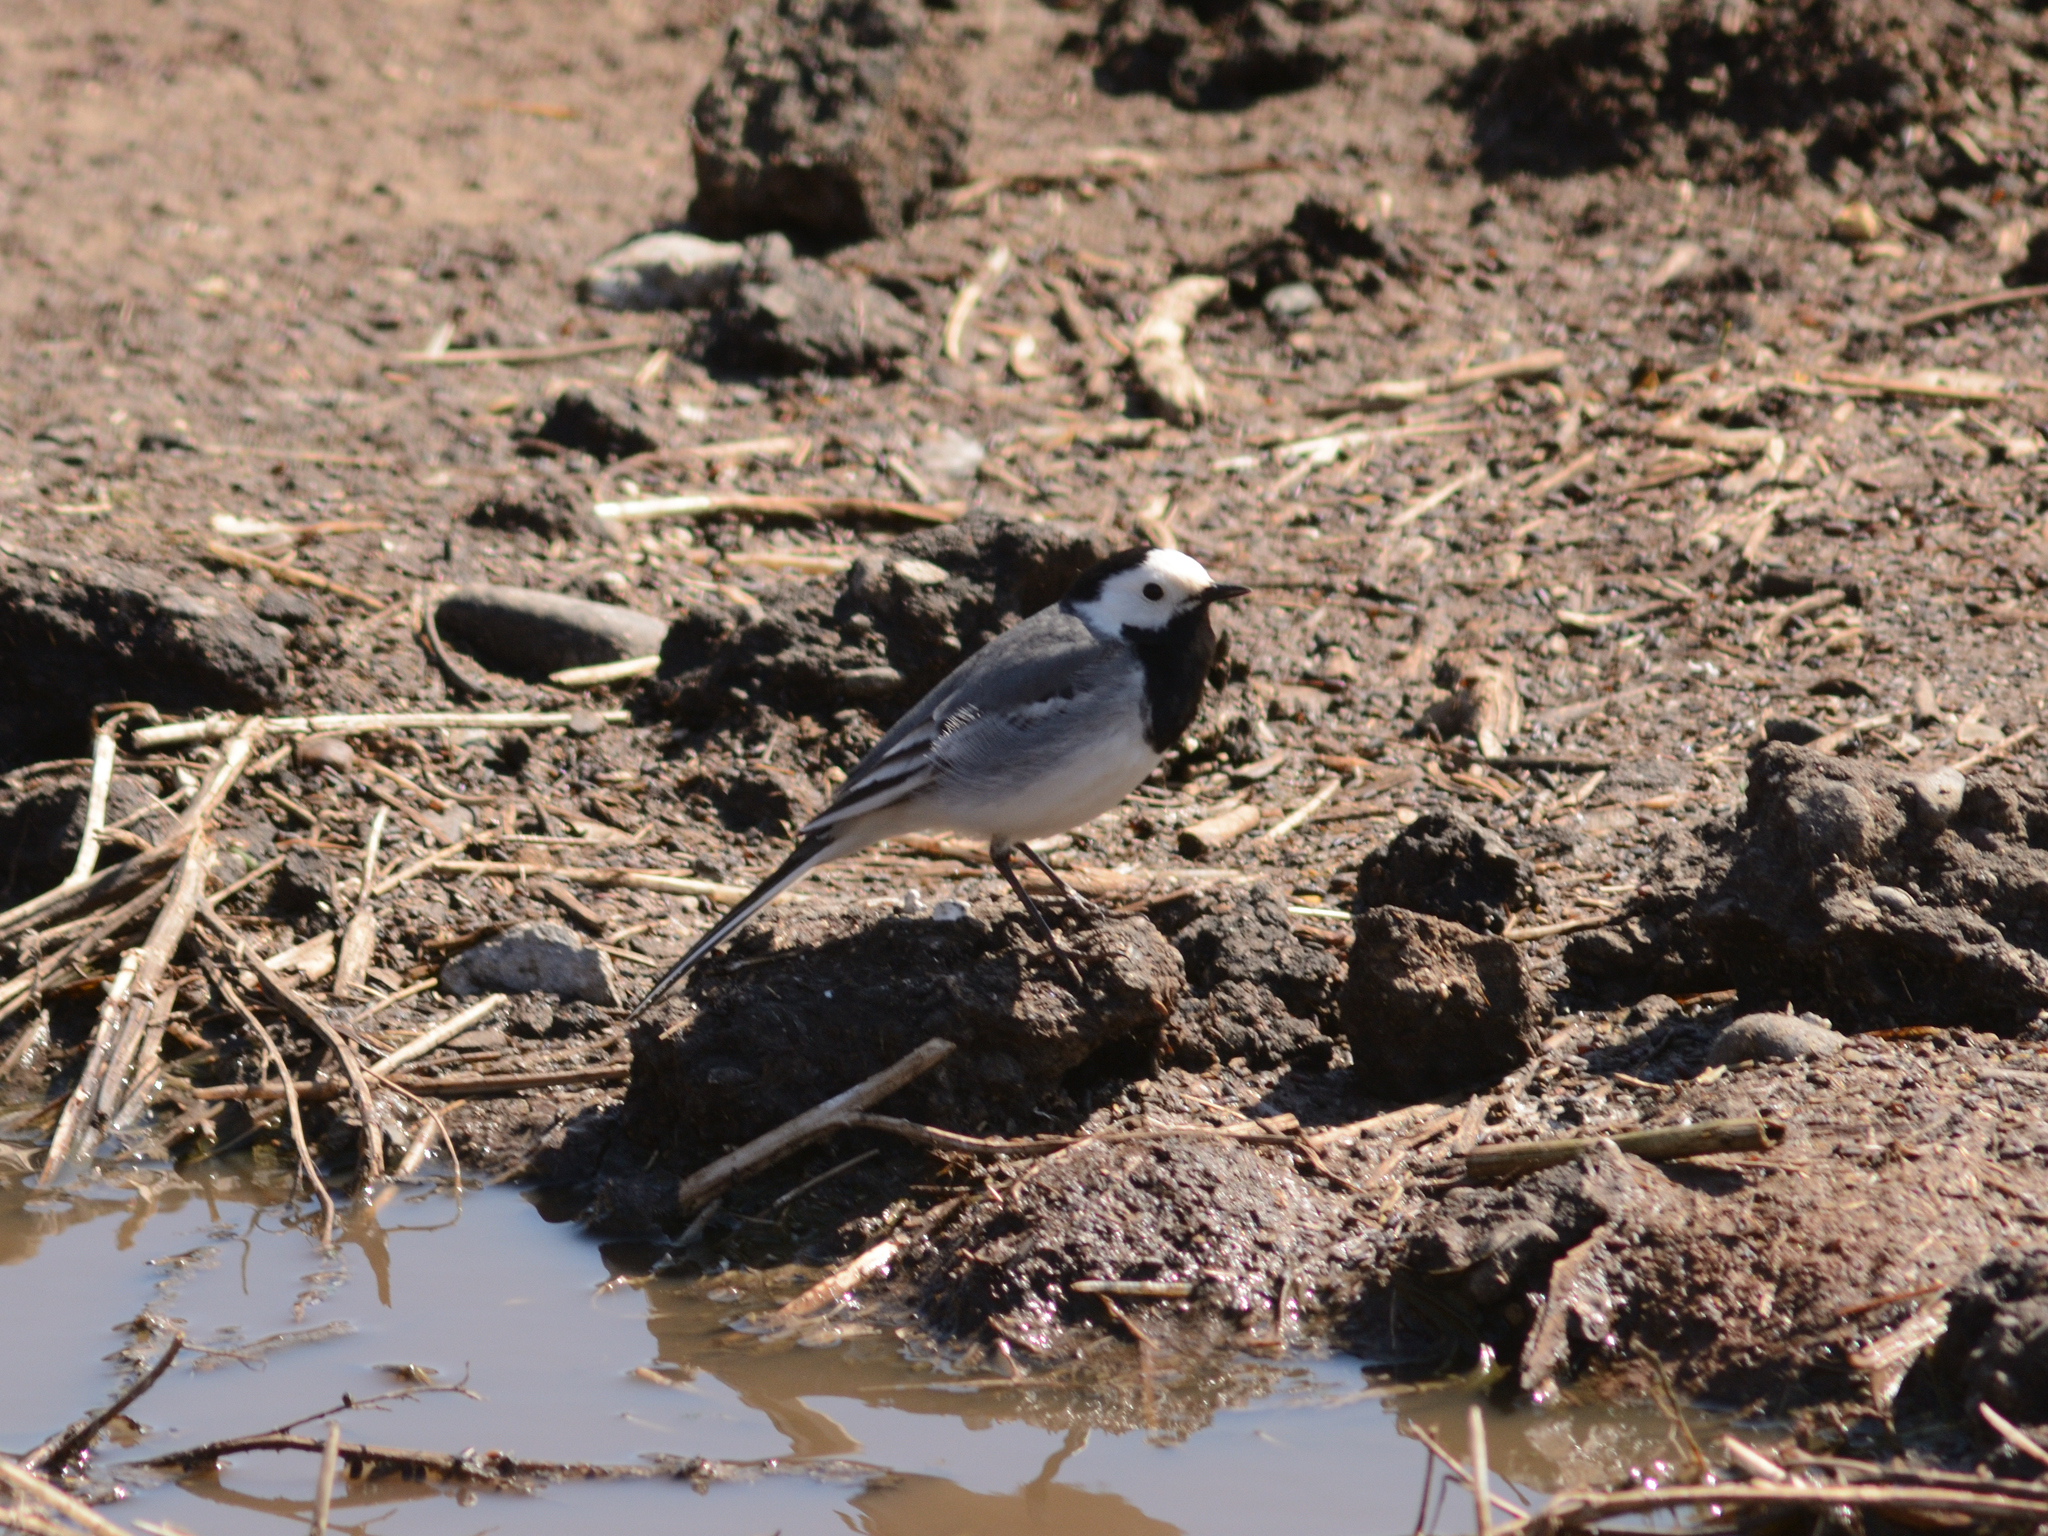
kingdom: Animalia
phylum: Chordata
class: Aves
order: Passeriformes
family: Motacillidae
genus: Motacilla
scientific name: Motacilla alba
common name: White wagtail
